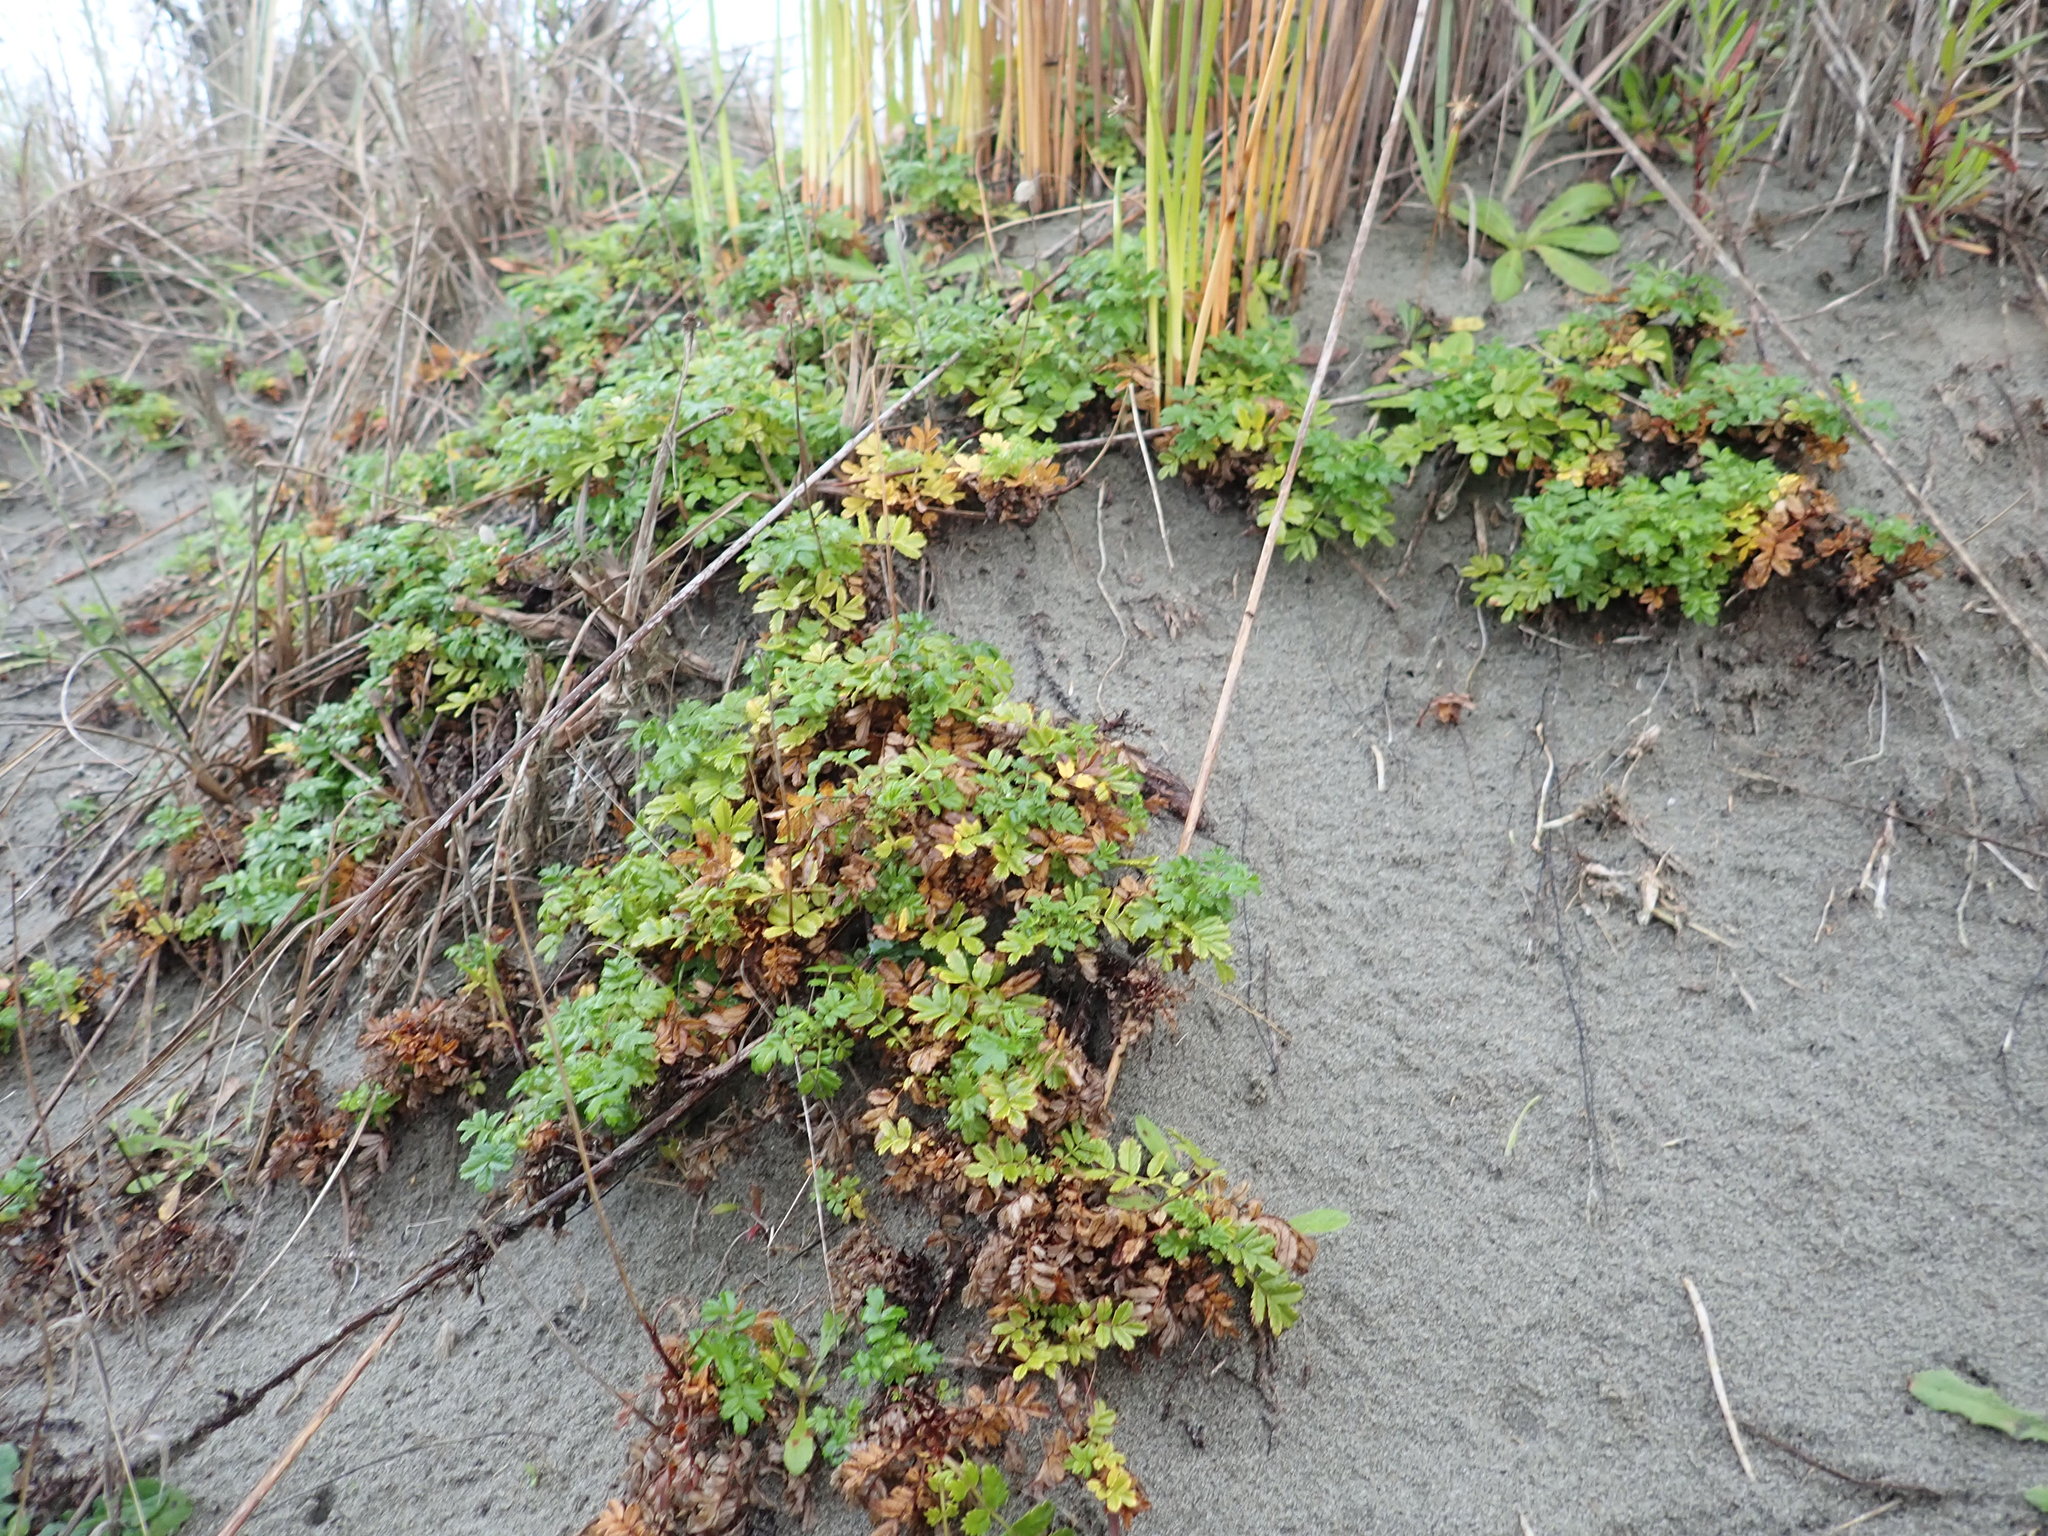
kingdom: Plantae
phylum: Tracheophyta
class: Magnoliopsida
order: Rosales
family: Rosaceae
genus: Acaena
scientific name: Acaena novae-zelandiae
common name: Pirri-pirri-bur
